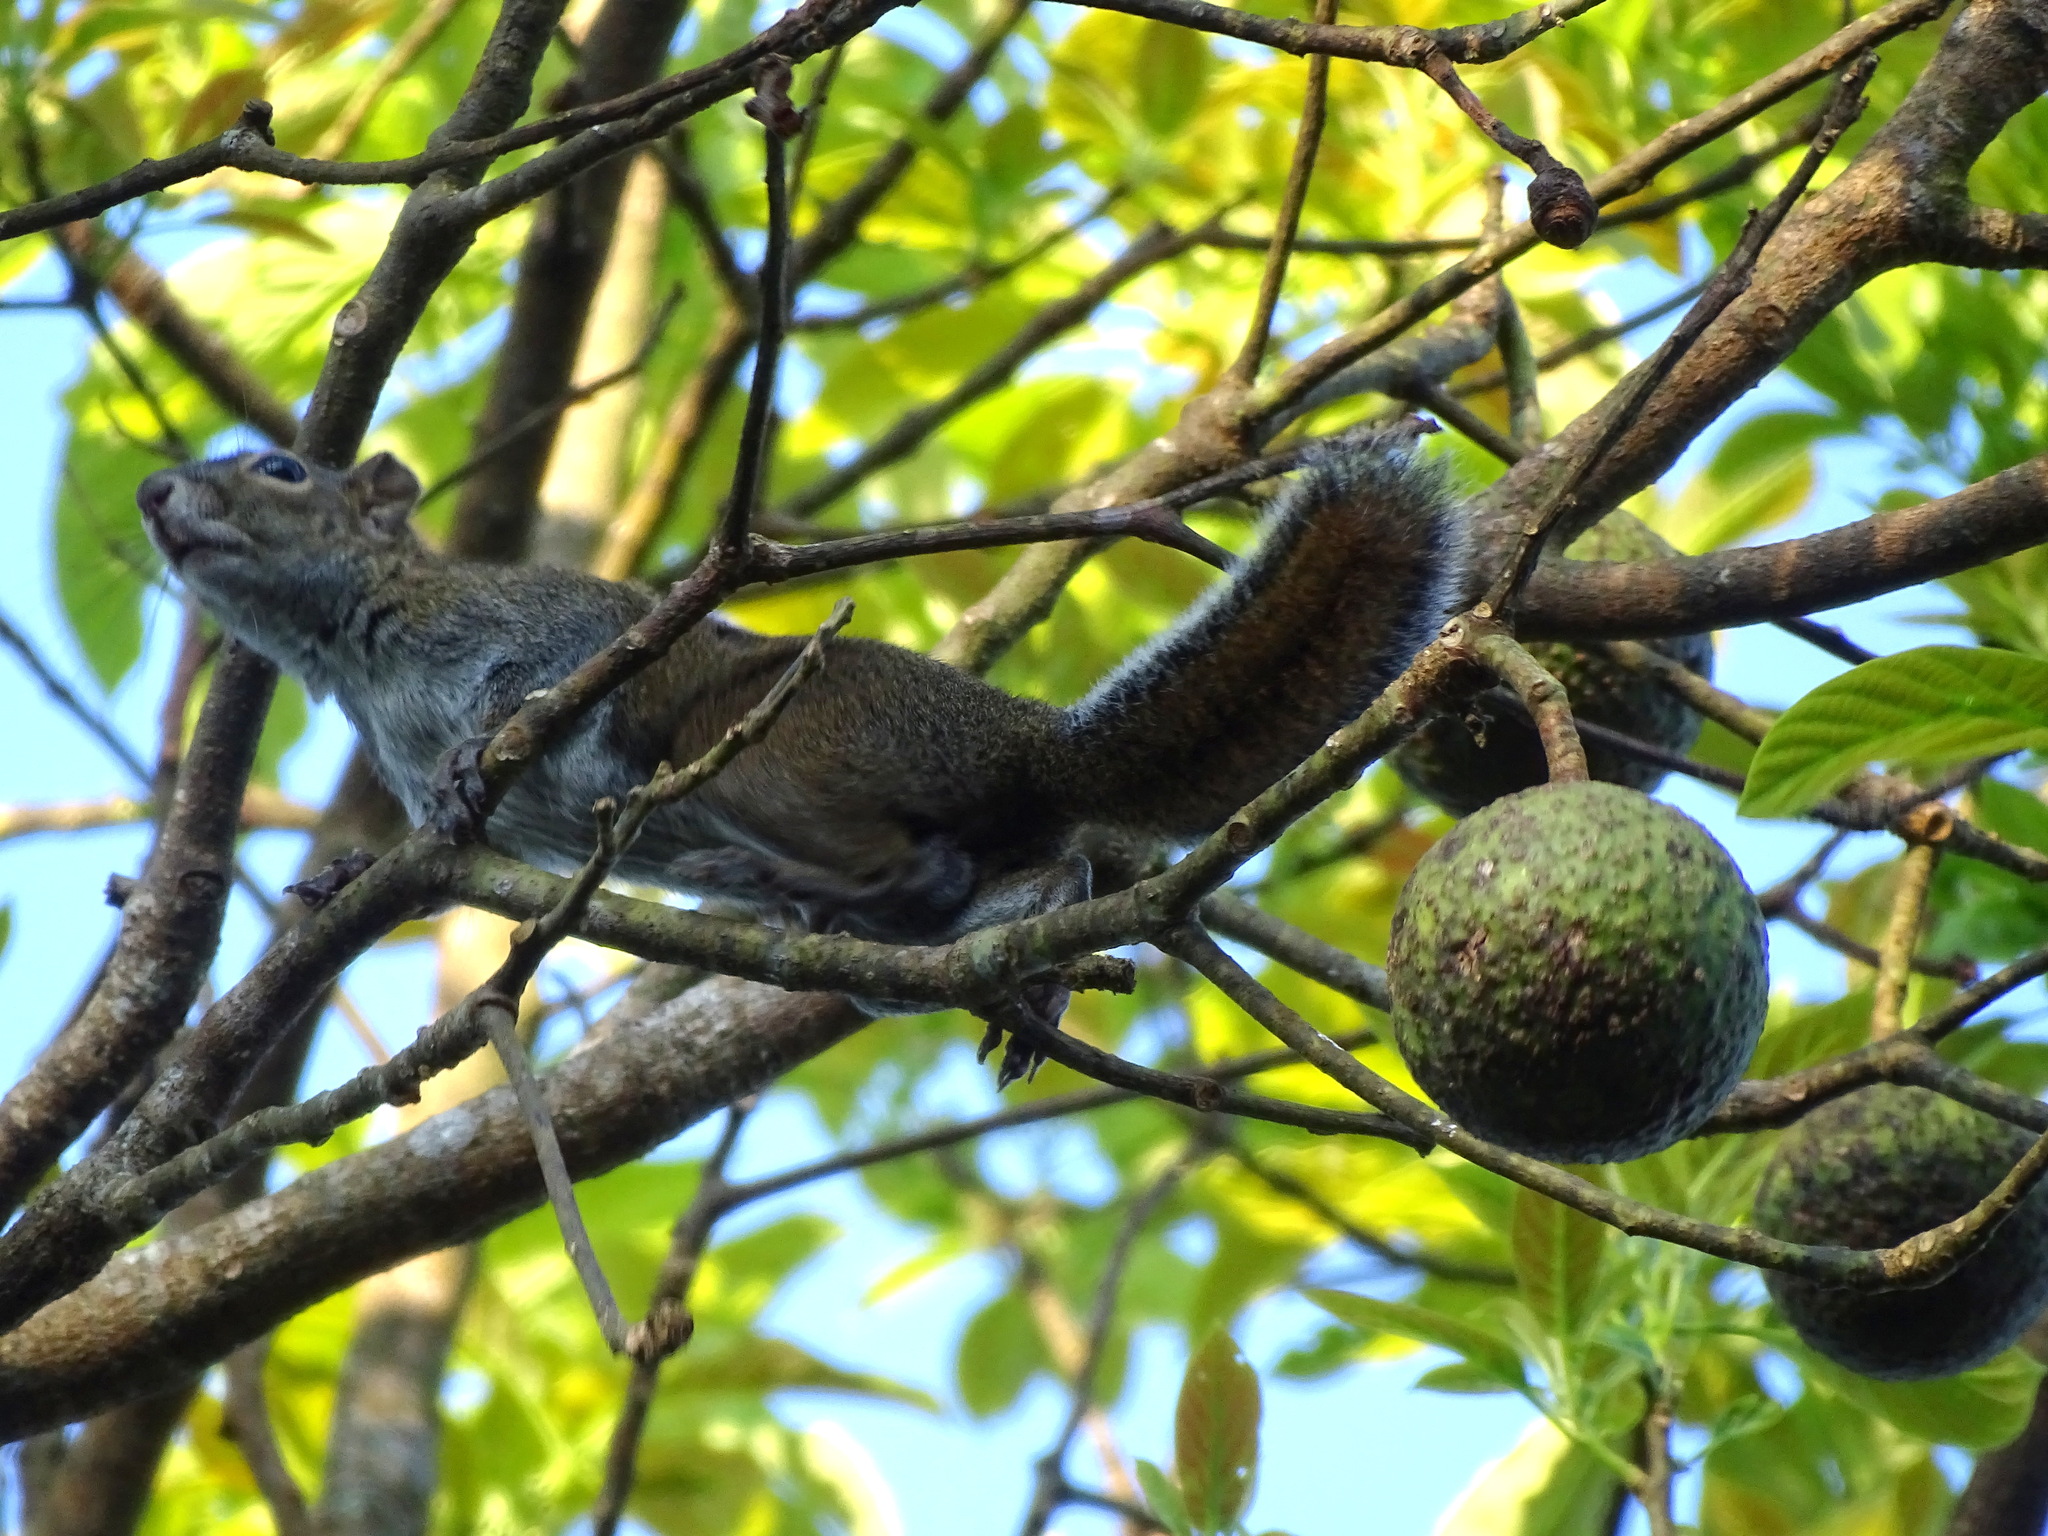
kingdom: Animalia
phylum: Chordata
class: Mammalia
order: Rodentia
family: Sciuridae
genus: Sciurus
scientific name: Sciurus deppei
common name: Deppe's squirrel
